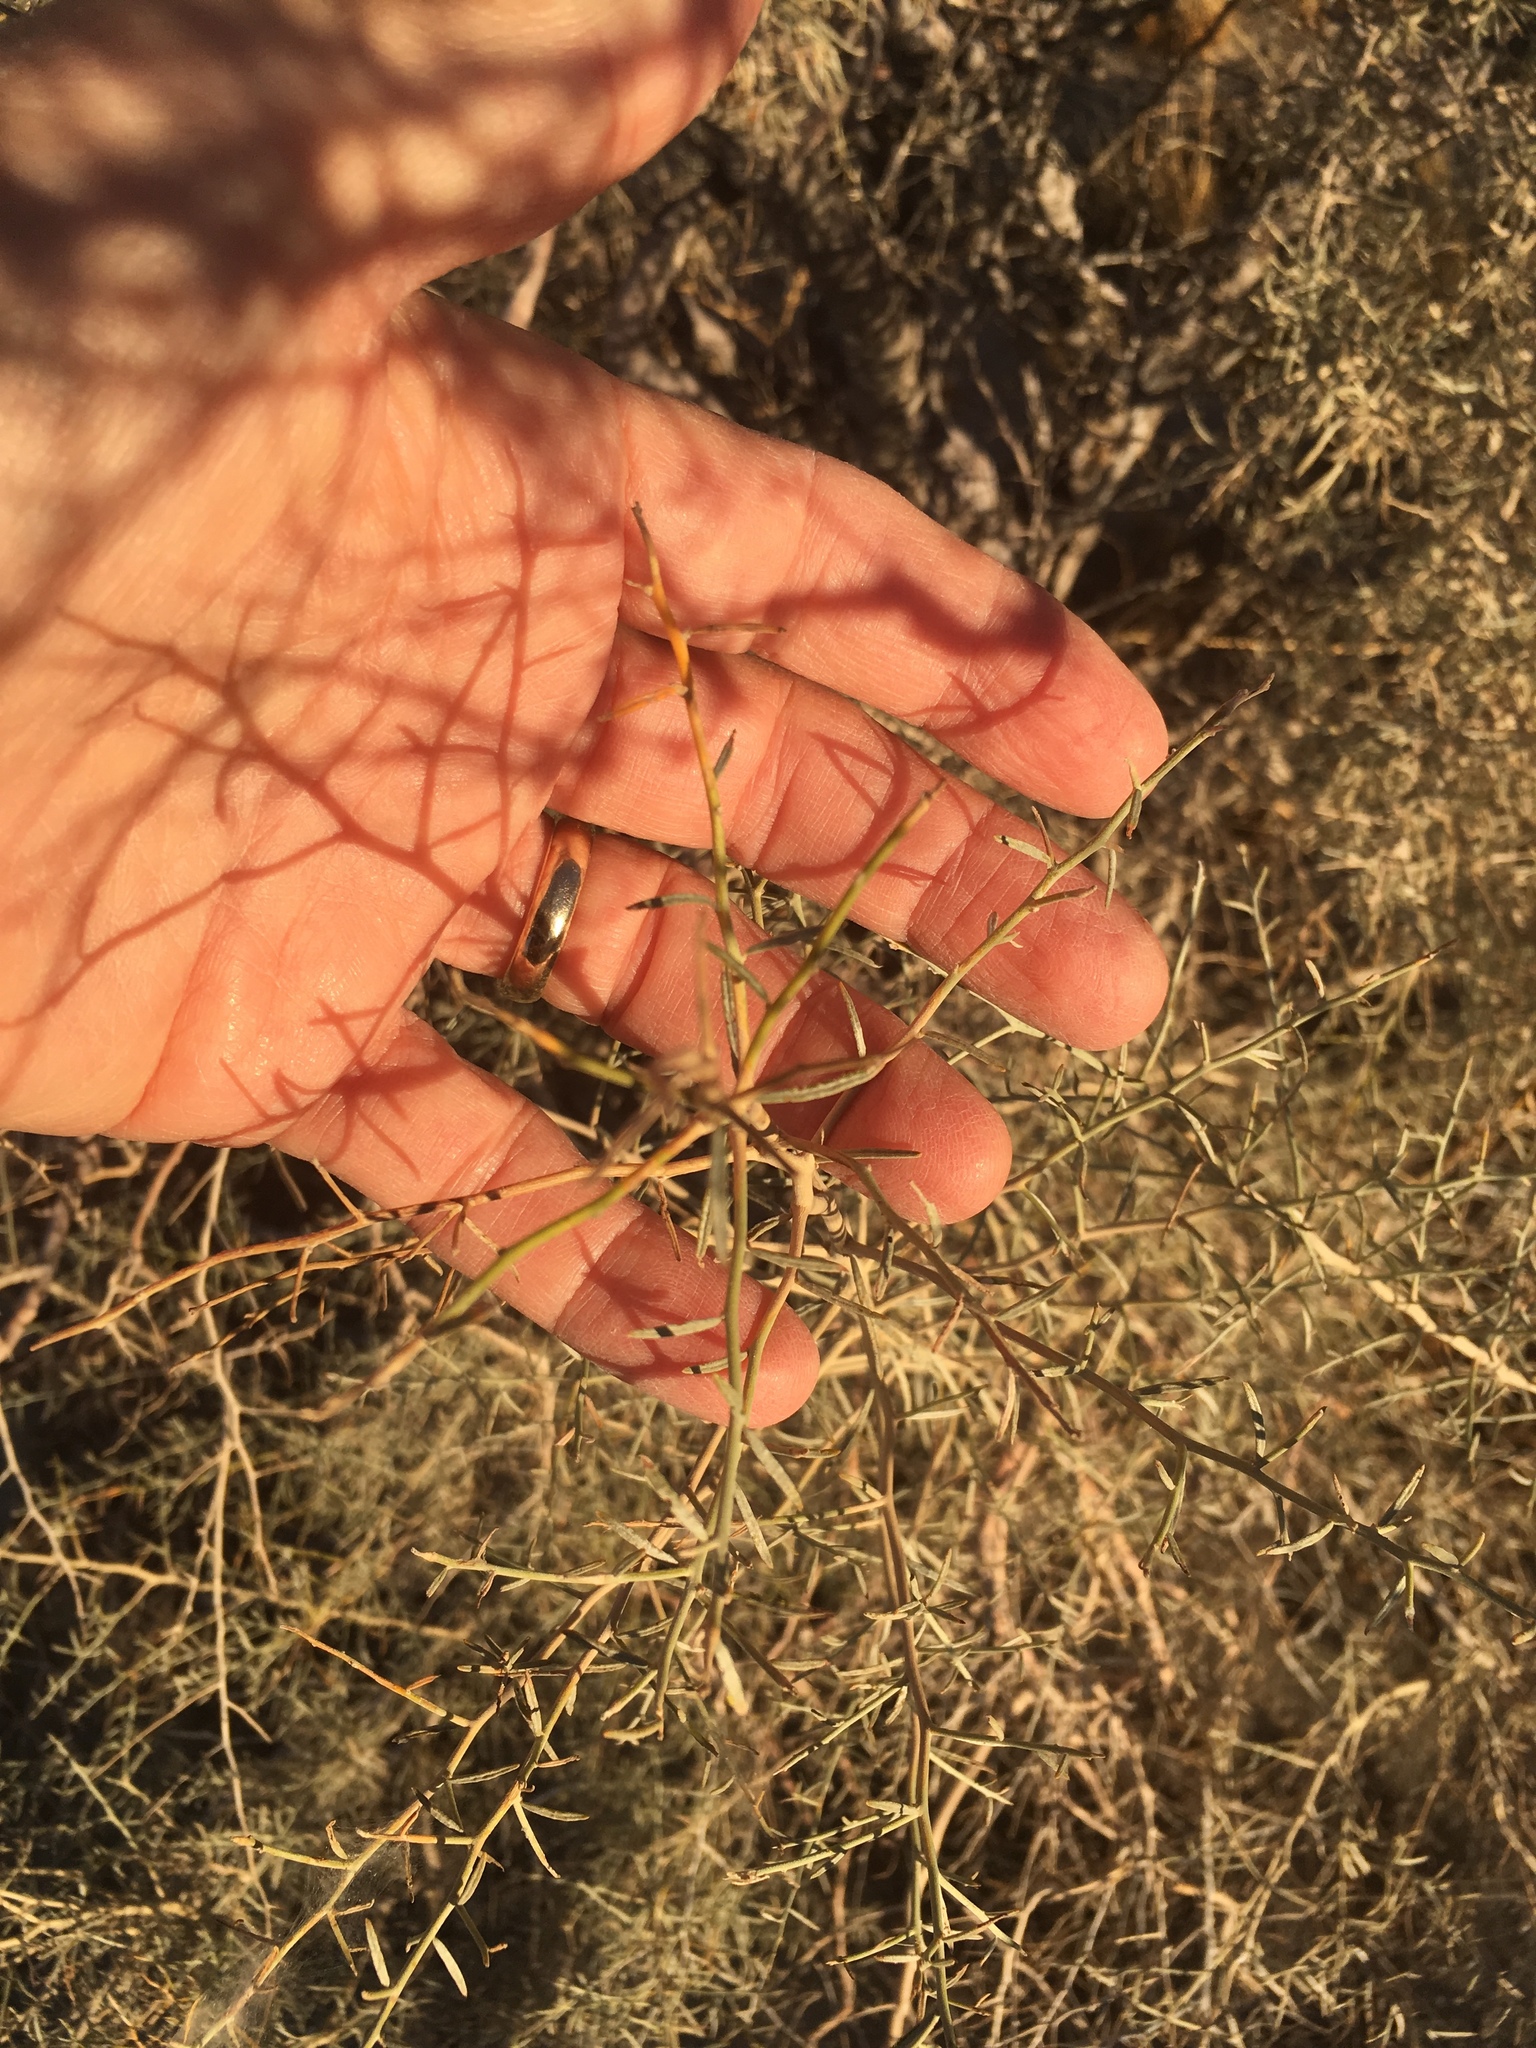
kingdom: Plantae
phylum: Tracheophyta
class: Magnoliopsida
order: Fabales
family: Fabaceae
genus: Psorothamnus
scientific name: Psorothamnus schottii
